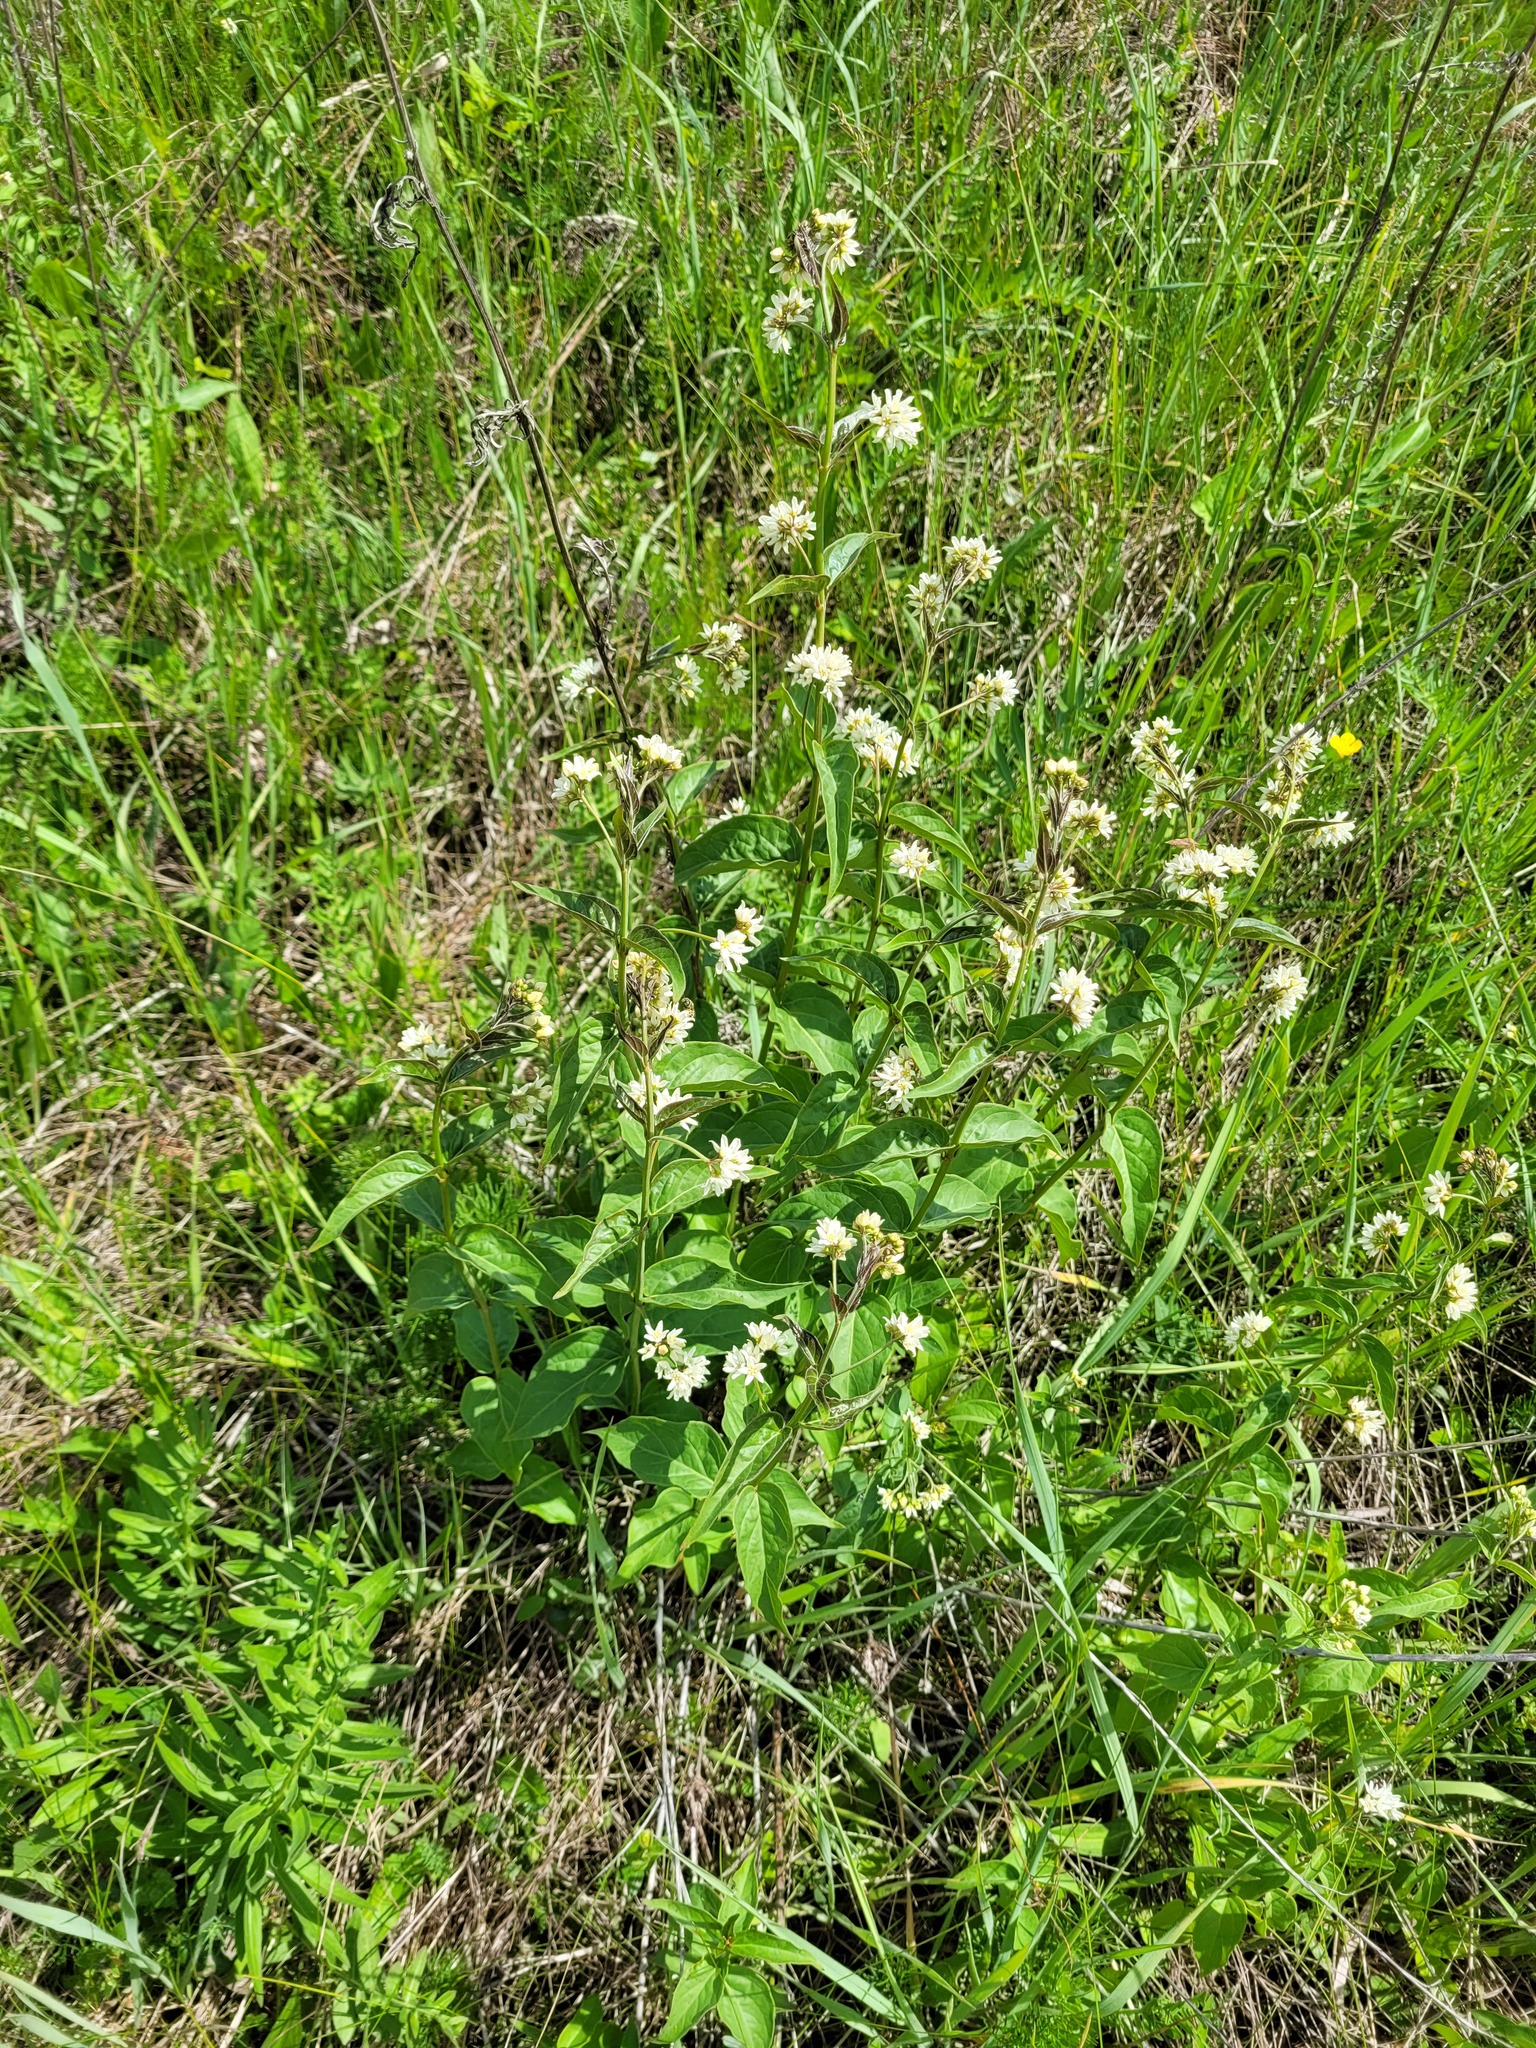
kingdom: Plantae
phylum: Tracheophyta
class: Magnoliopsida
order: Gentianales
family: Apocynaceae
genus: Vincetoxicum
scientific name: Vincetoxicum hirundinaria
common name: White swallowwort
